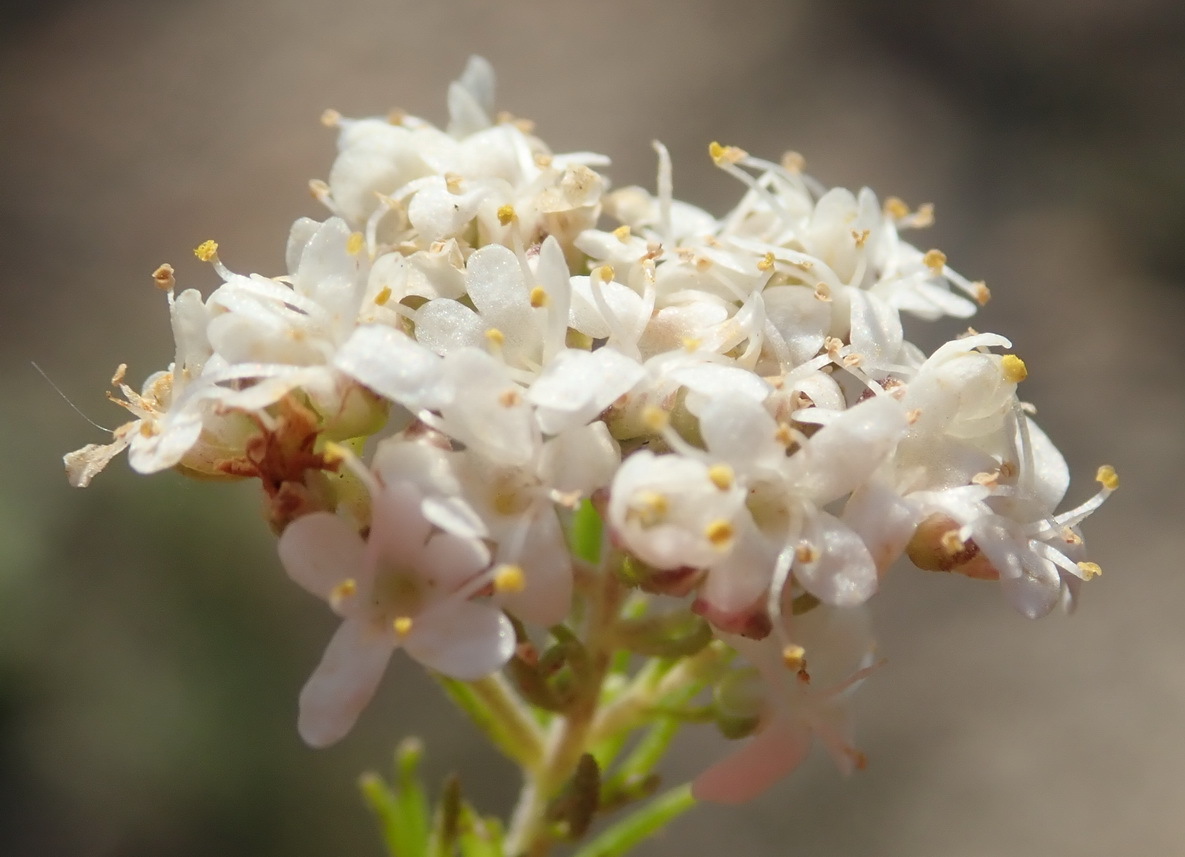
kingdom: Plantae
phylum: Tracheophyta
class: Magnoliopsida
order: Lamiales
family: Scrophulariaceae
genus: Selago
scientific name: Selago corymbosa
